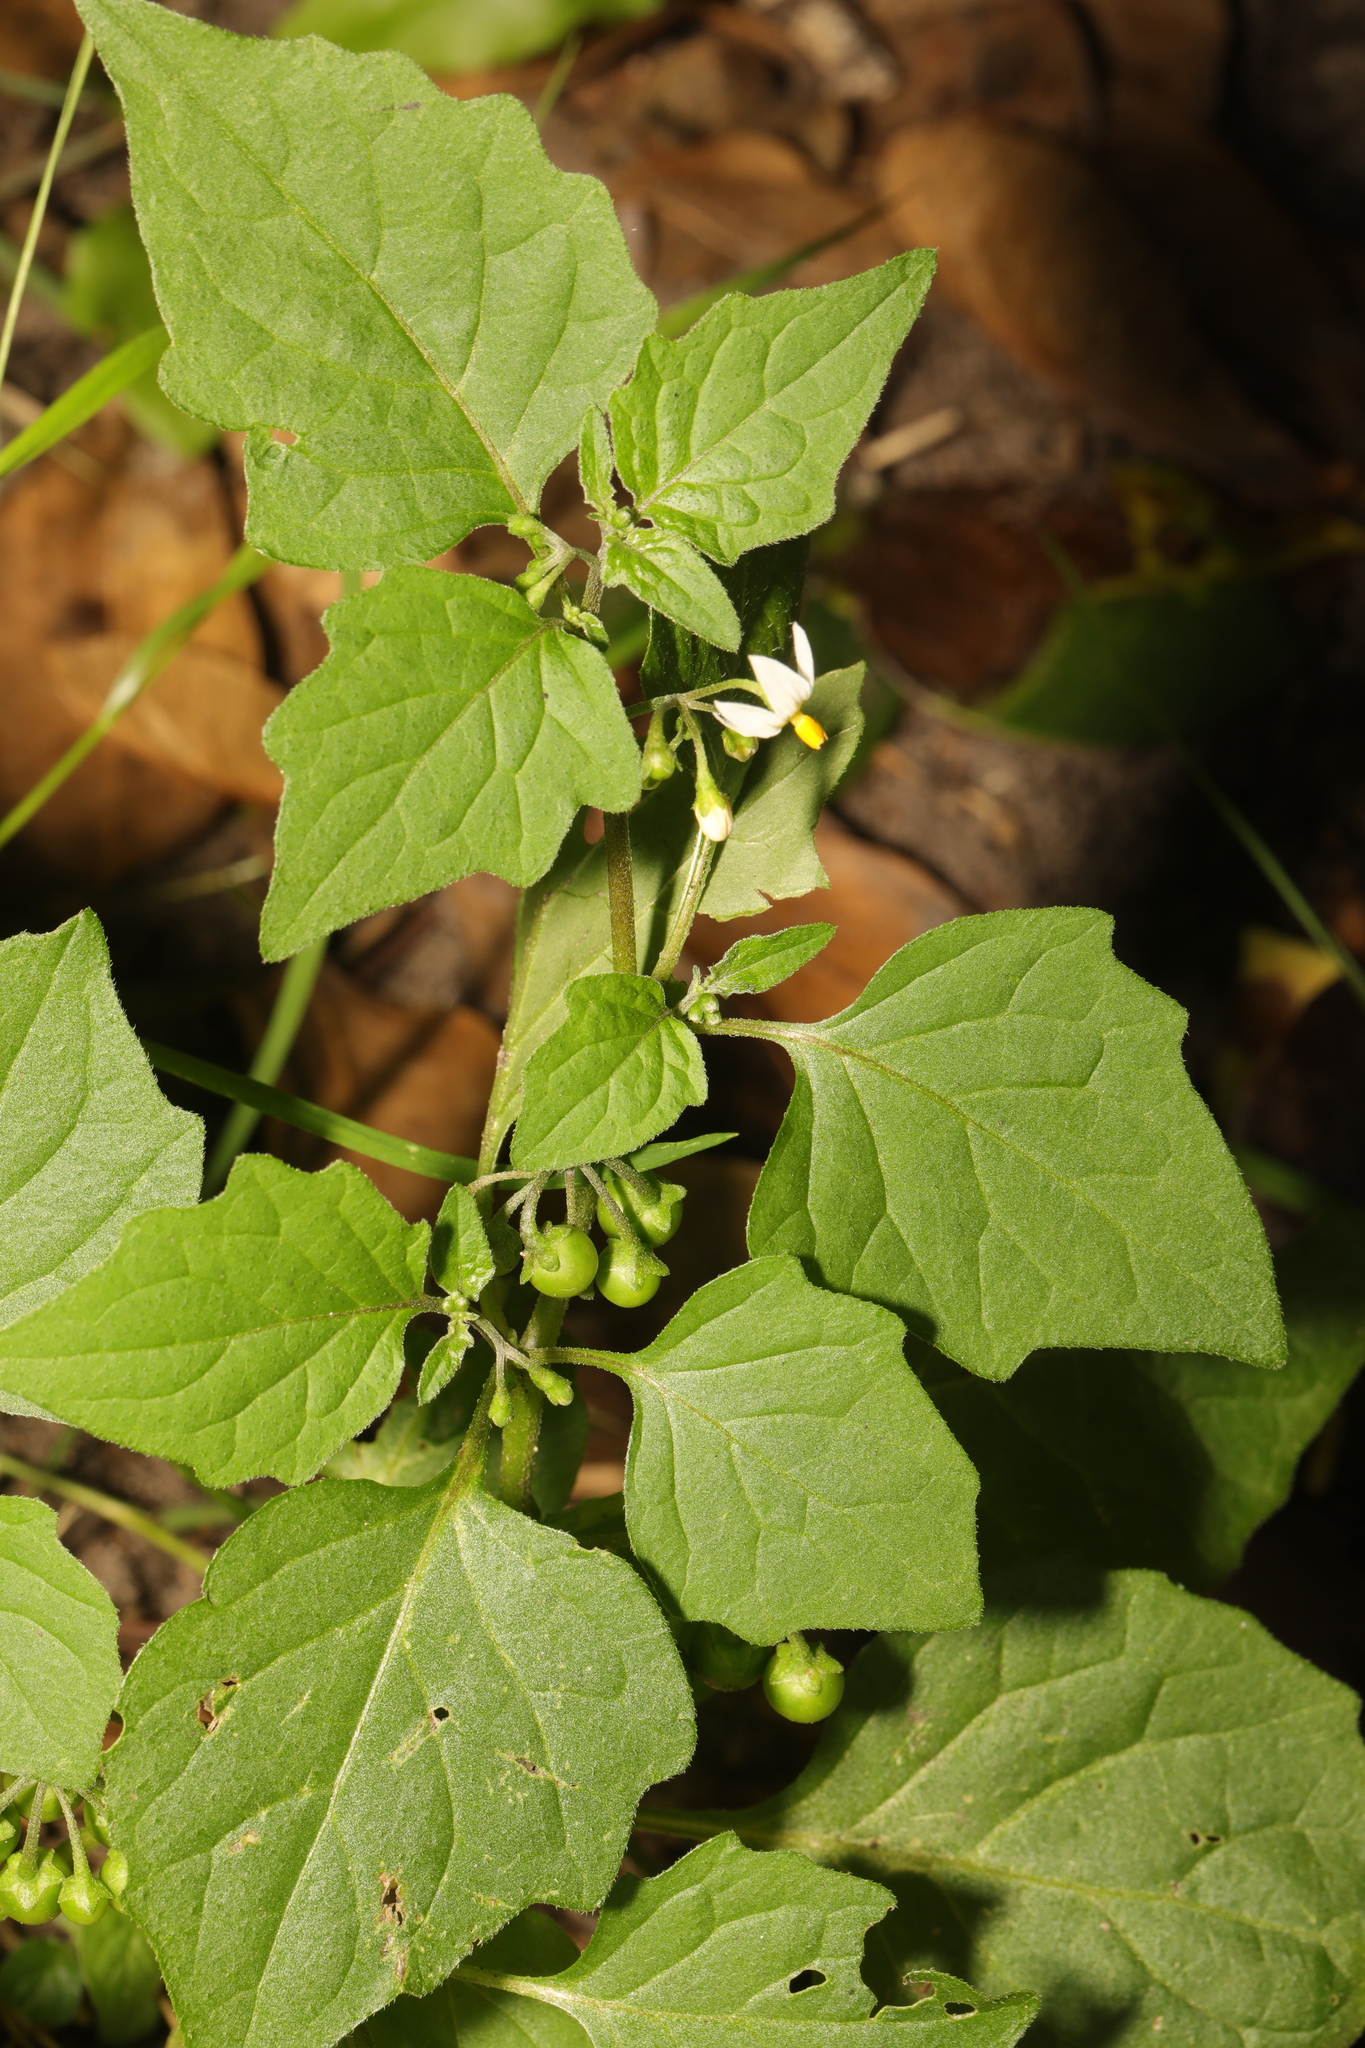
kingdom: Plantae
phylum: Tracheophyta
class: Magnoliopsida
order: Solanales
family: Solanaceae
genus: Solanum
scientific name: Solanum nigrum
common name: Black nightshade
